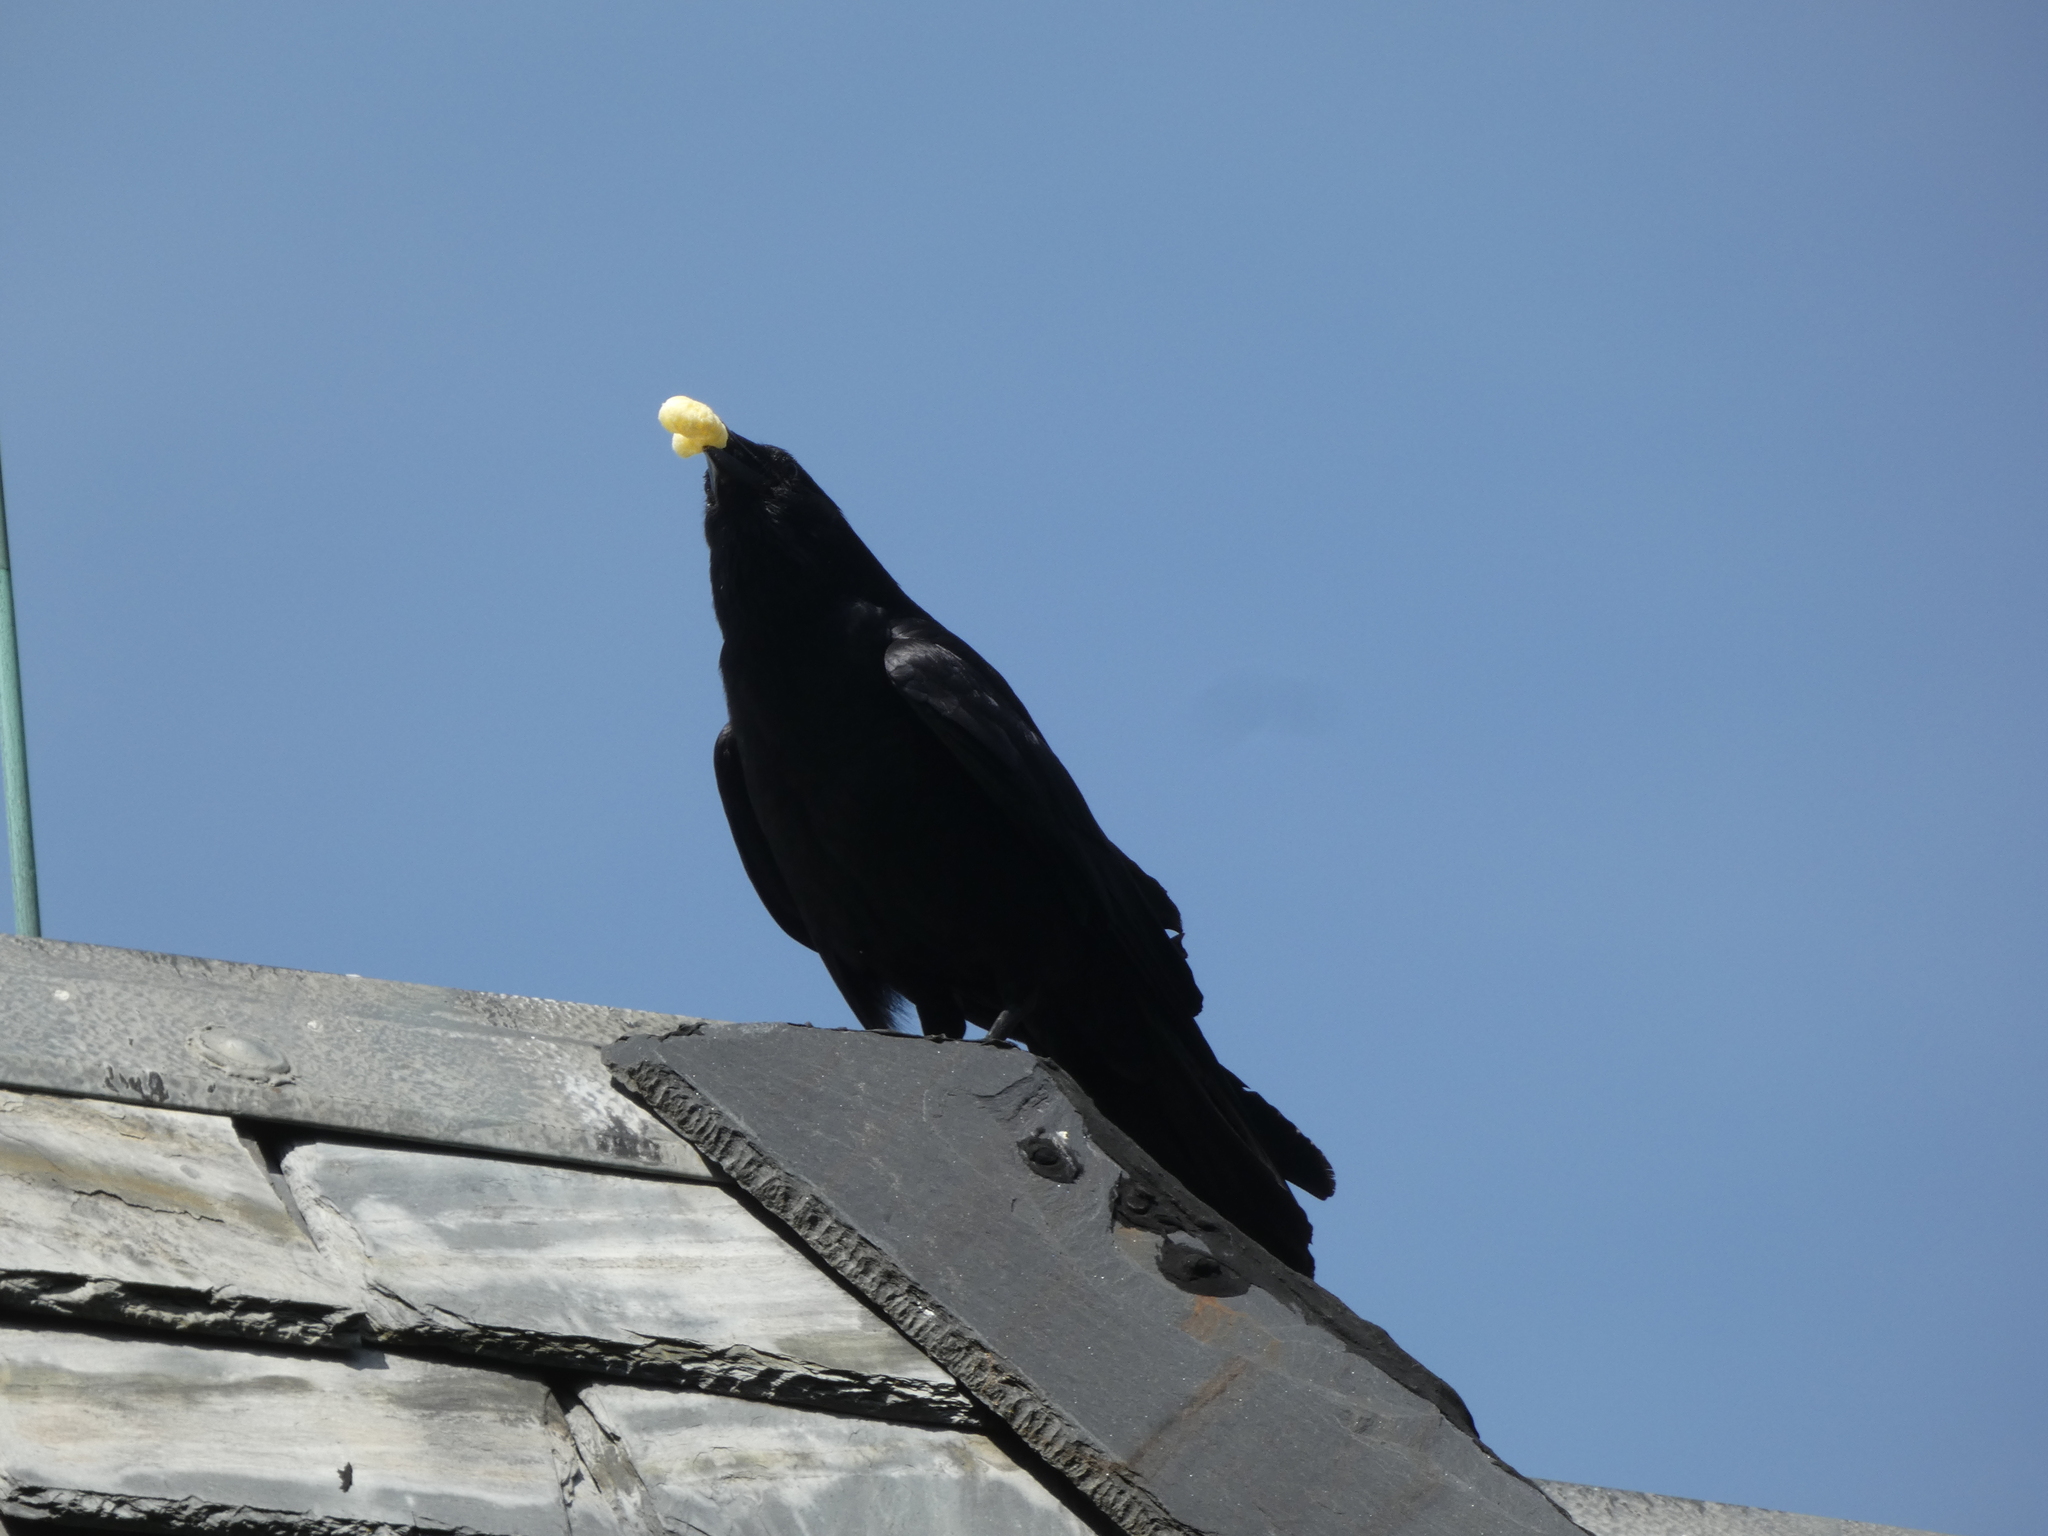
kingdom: Animalia
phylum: Chordata
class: Aves
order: Passeriformes
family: Corvidae
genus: Corvus
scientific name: Corvus brachyrhynchos
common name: American crow
